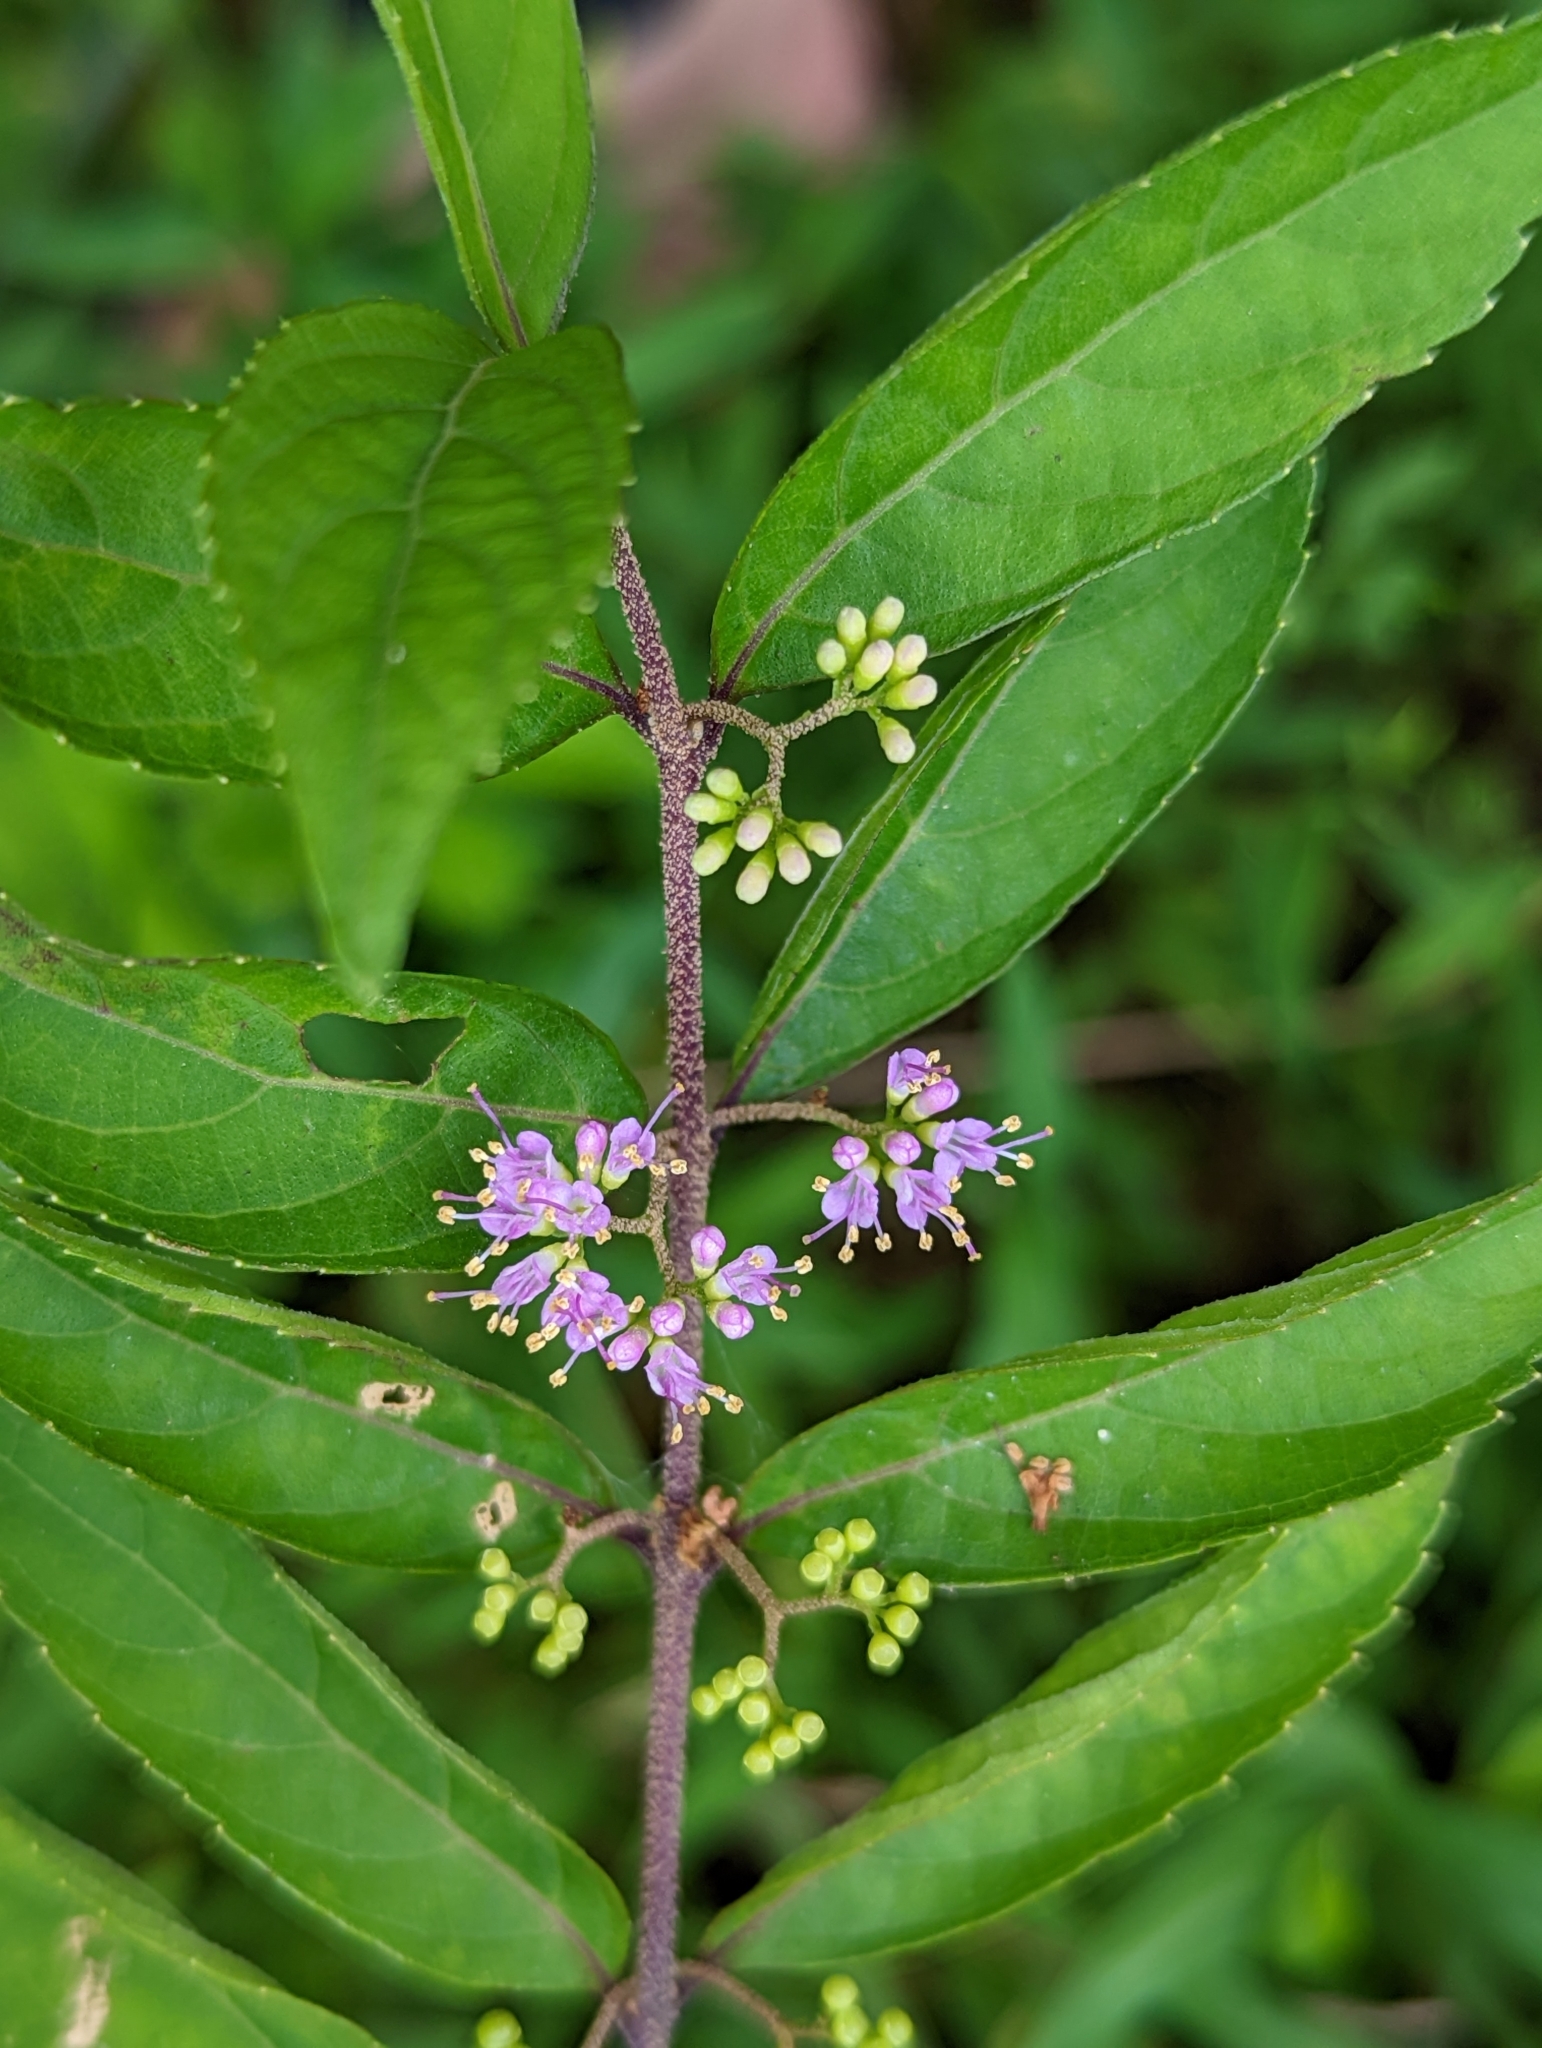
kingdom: Plantae
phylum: Tracheophyta
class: Magnoliopsida
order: Lamiales
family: Lamiaceae
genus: Callicarpa
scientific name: Callicarpa dichotoma
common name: Purple beauty-berry
